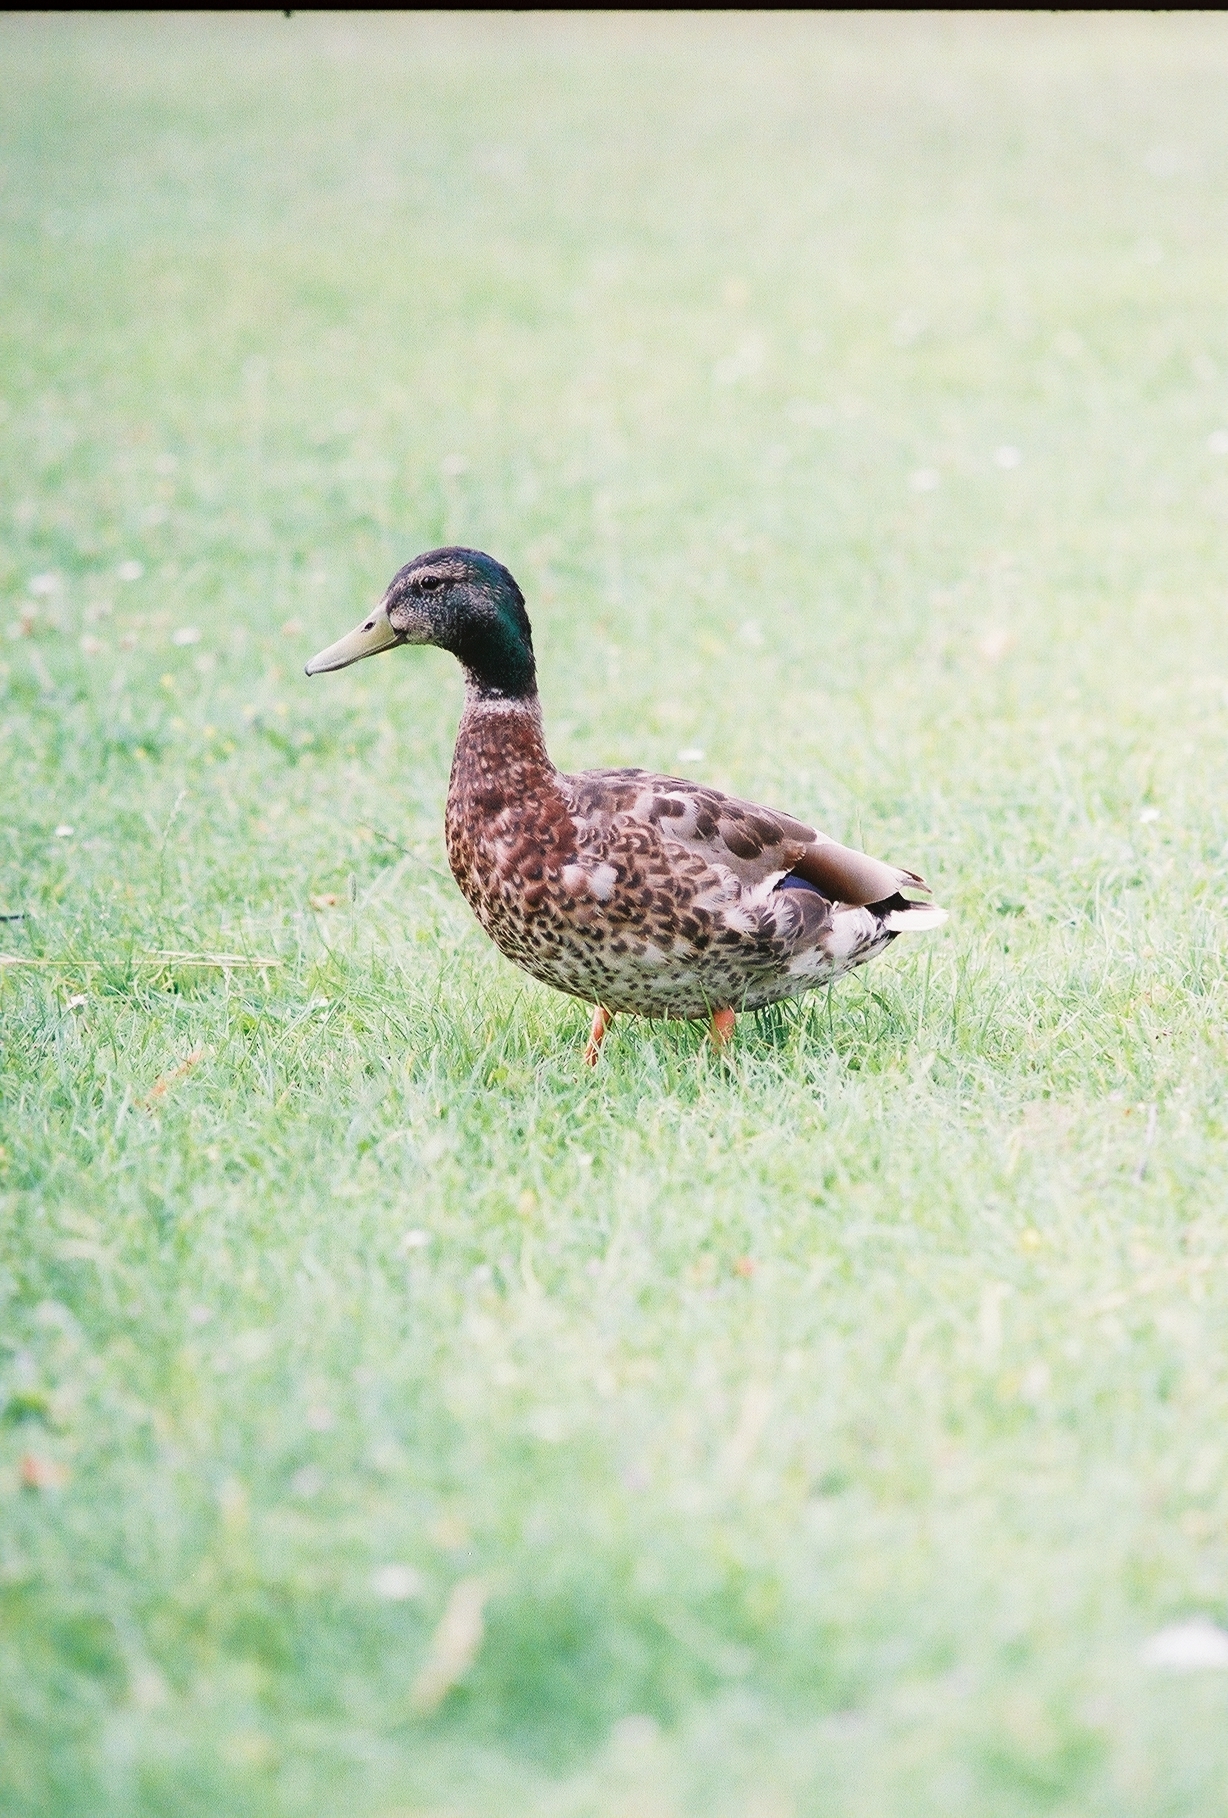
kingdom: Animalia
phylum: Chordata
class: Aves
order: Anseriformes
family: Anatidae
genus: Anas
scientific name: Anas platyrhynchos
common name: Mallard
